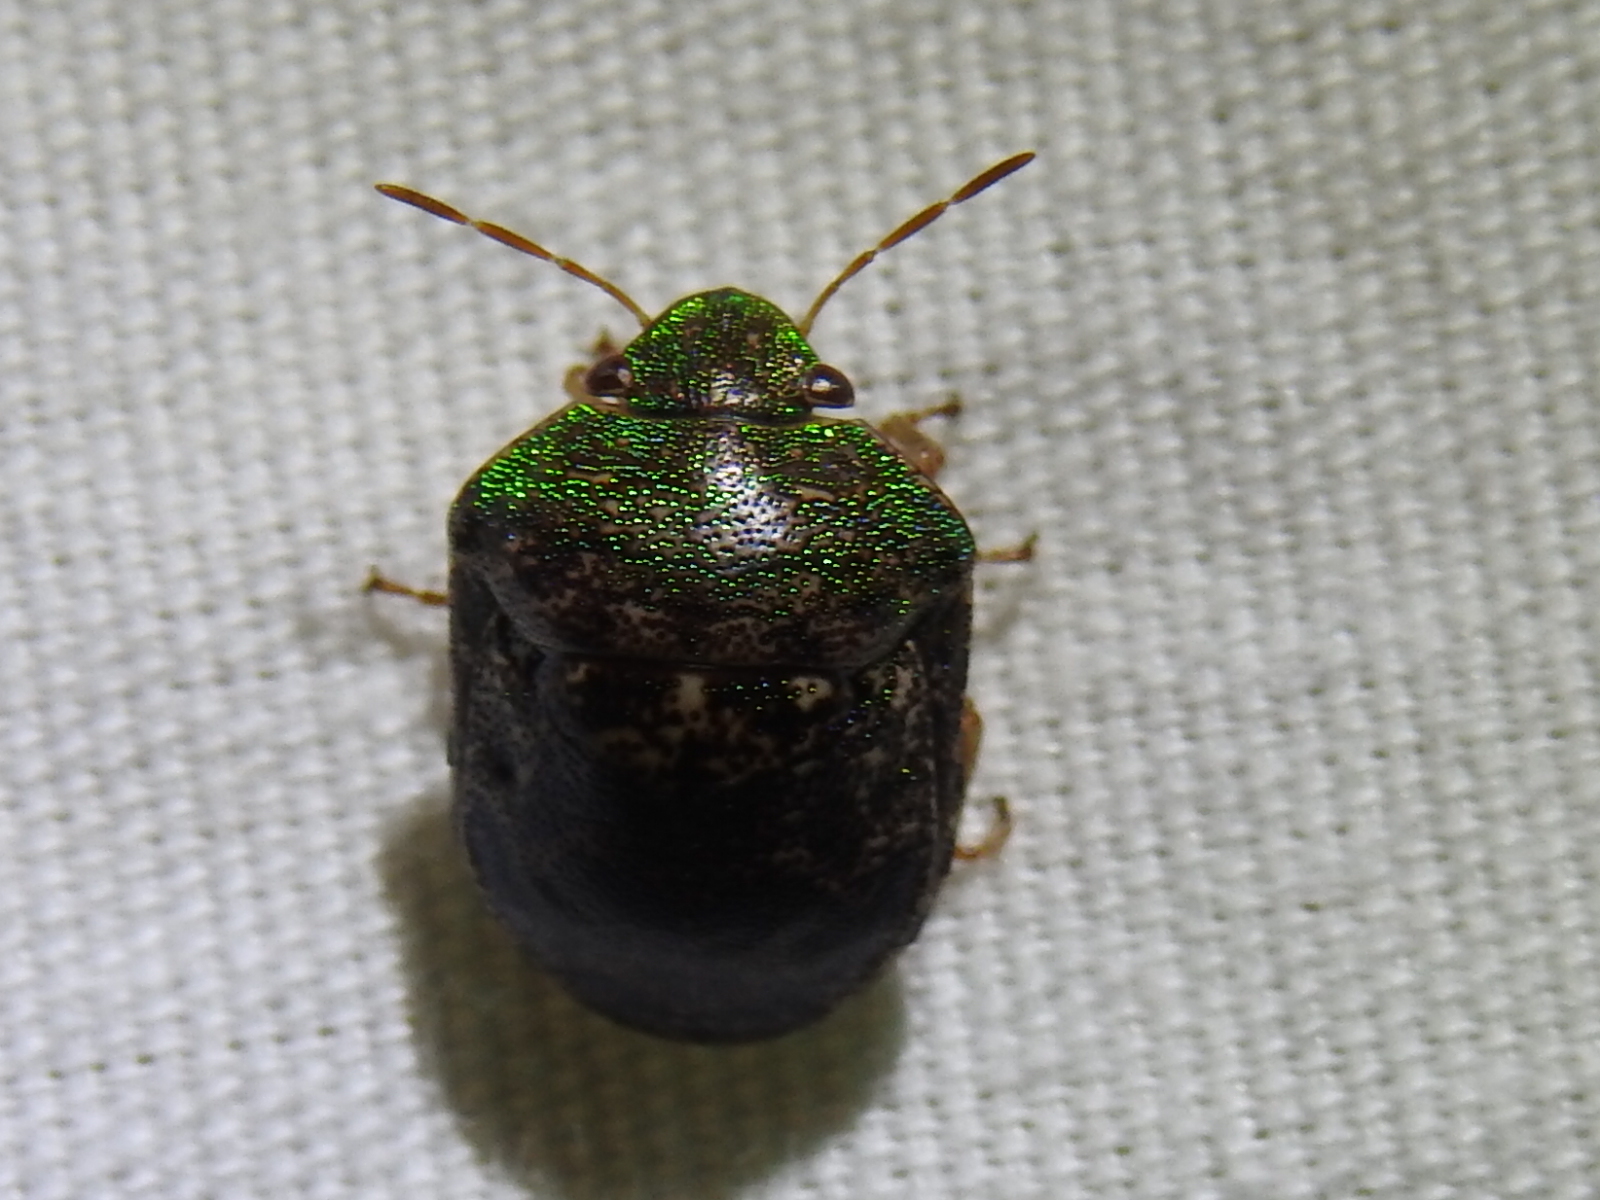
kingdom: Animalia
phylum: Arthropoda
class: Insecta
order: Hemiptera
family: Scutelleridae
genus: Diolcus
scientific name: Diolcus chrysorrhoeus
